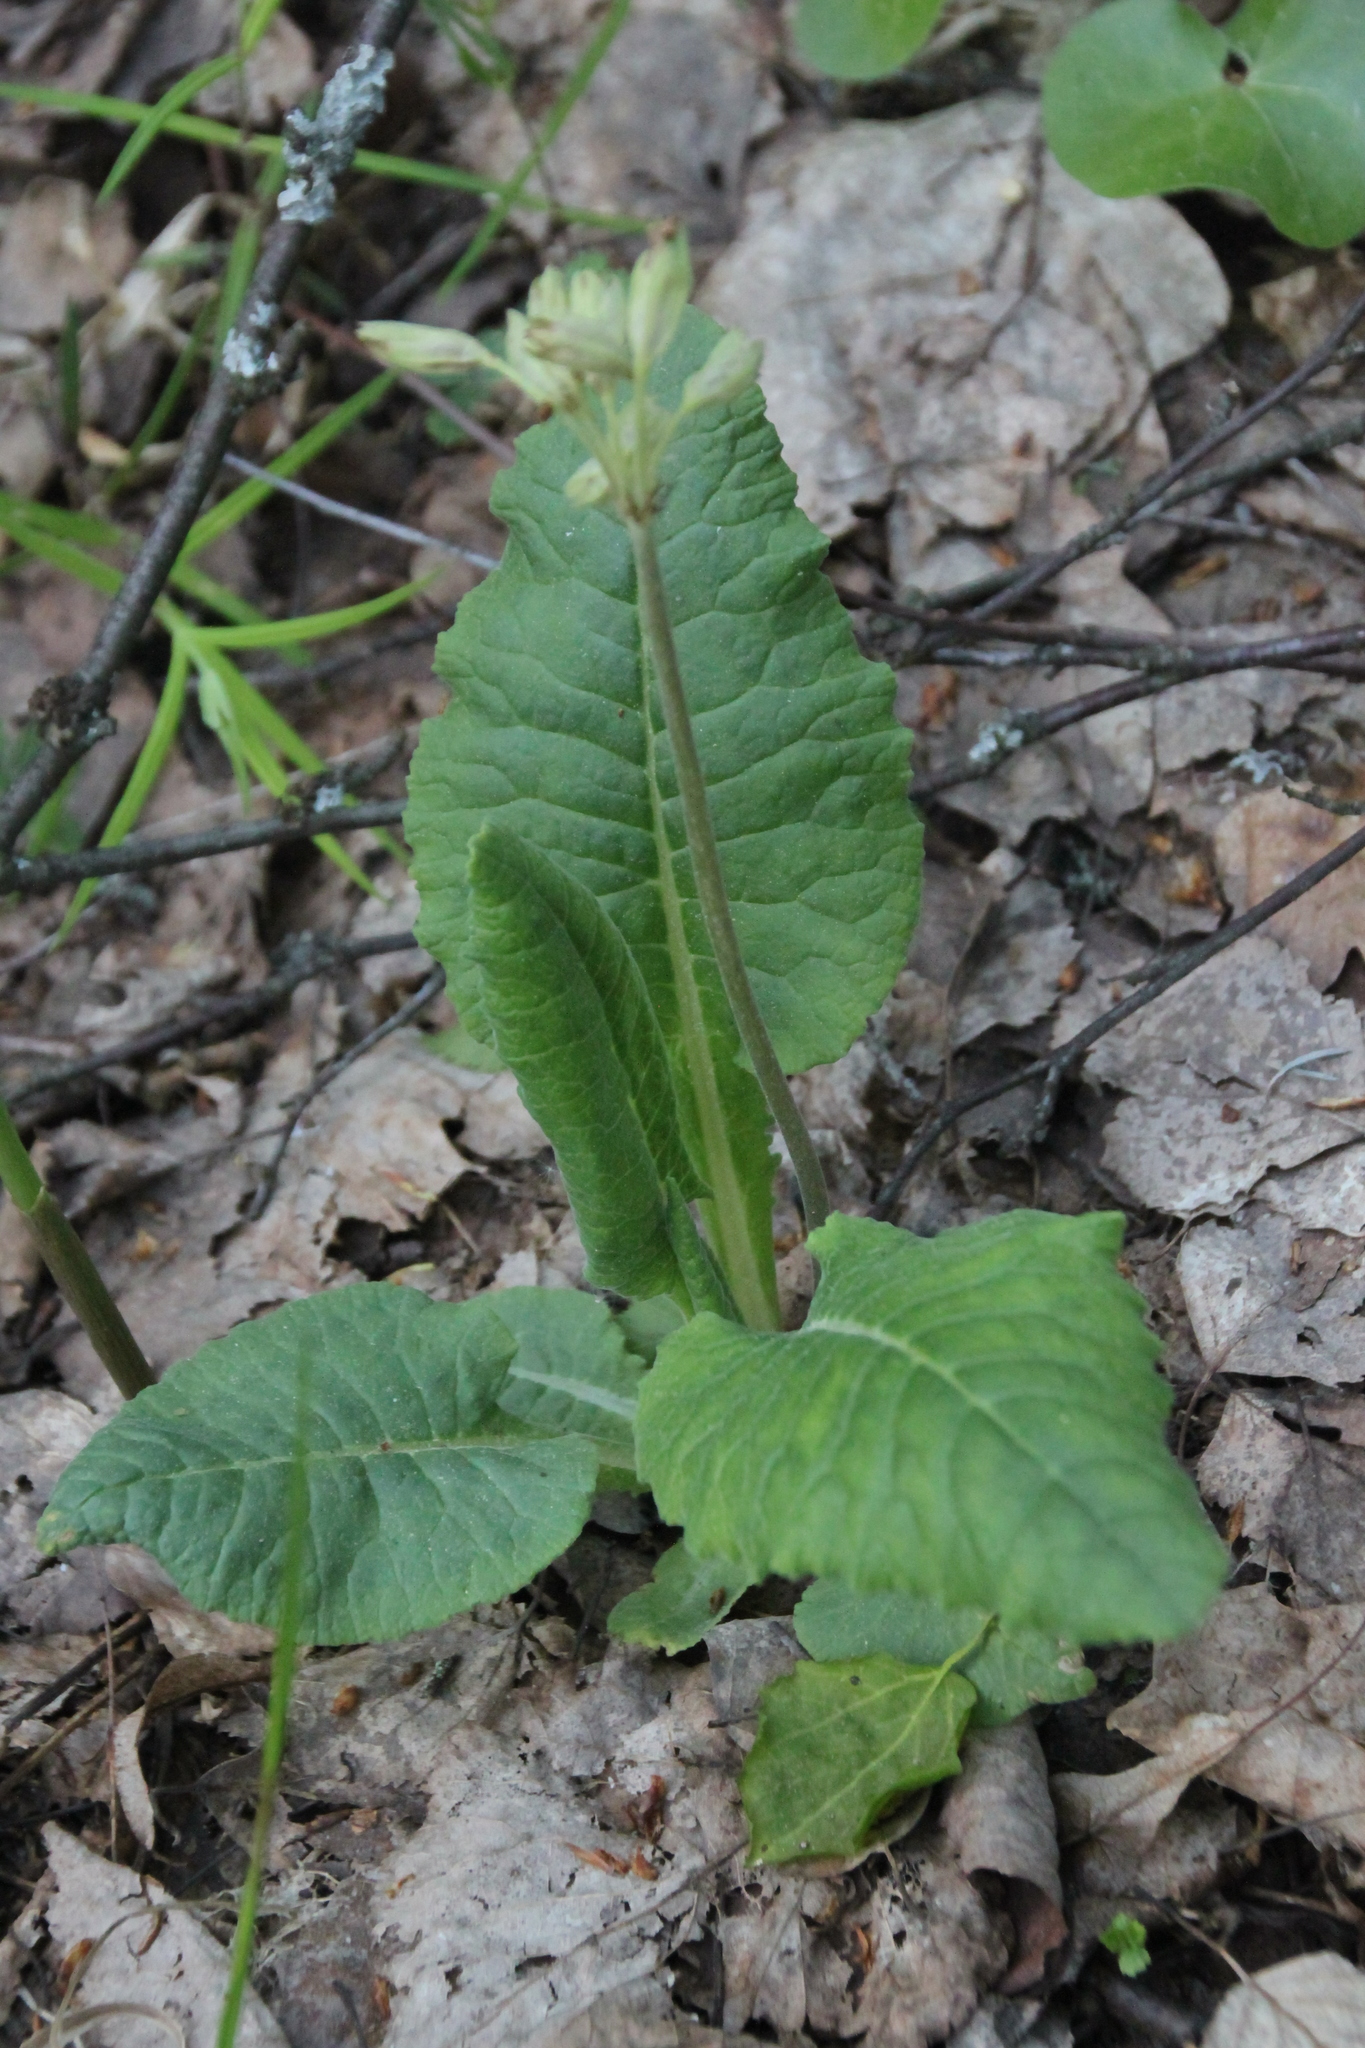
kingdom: Plantae
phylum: Tracheophyta
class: Magnoliopsida
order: Ericales
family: Primulaceae
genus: Primula
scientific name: Primula veris
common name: Cowslip
